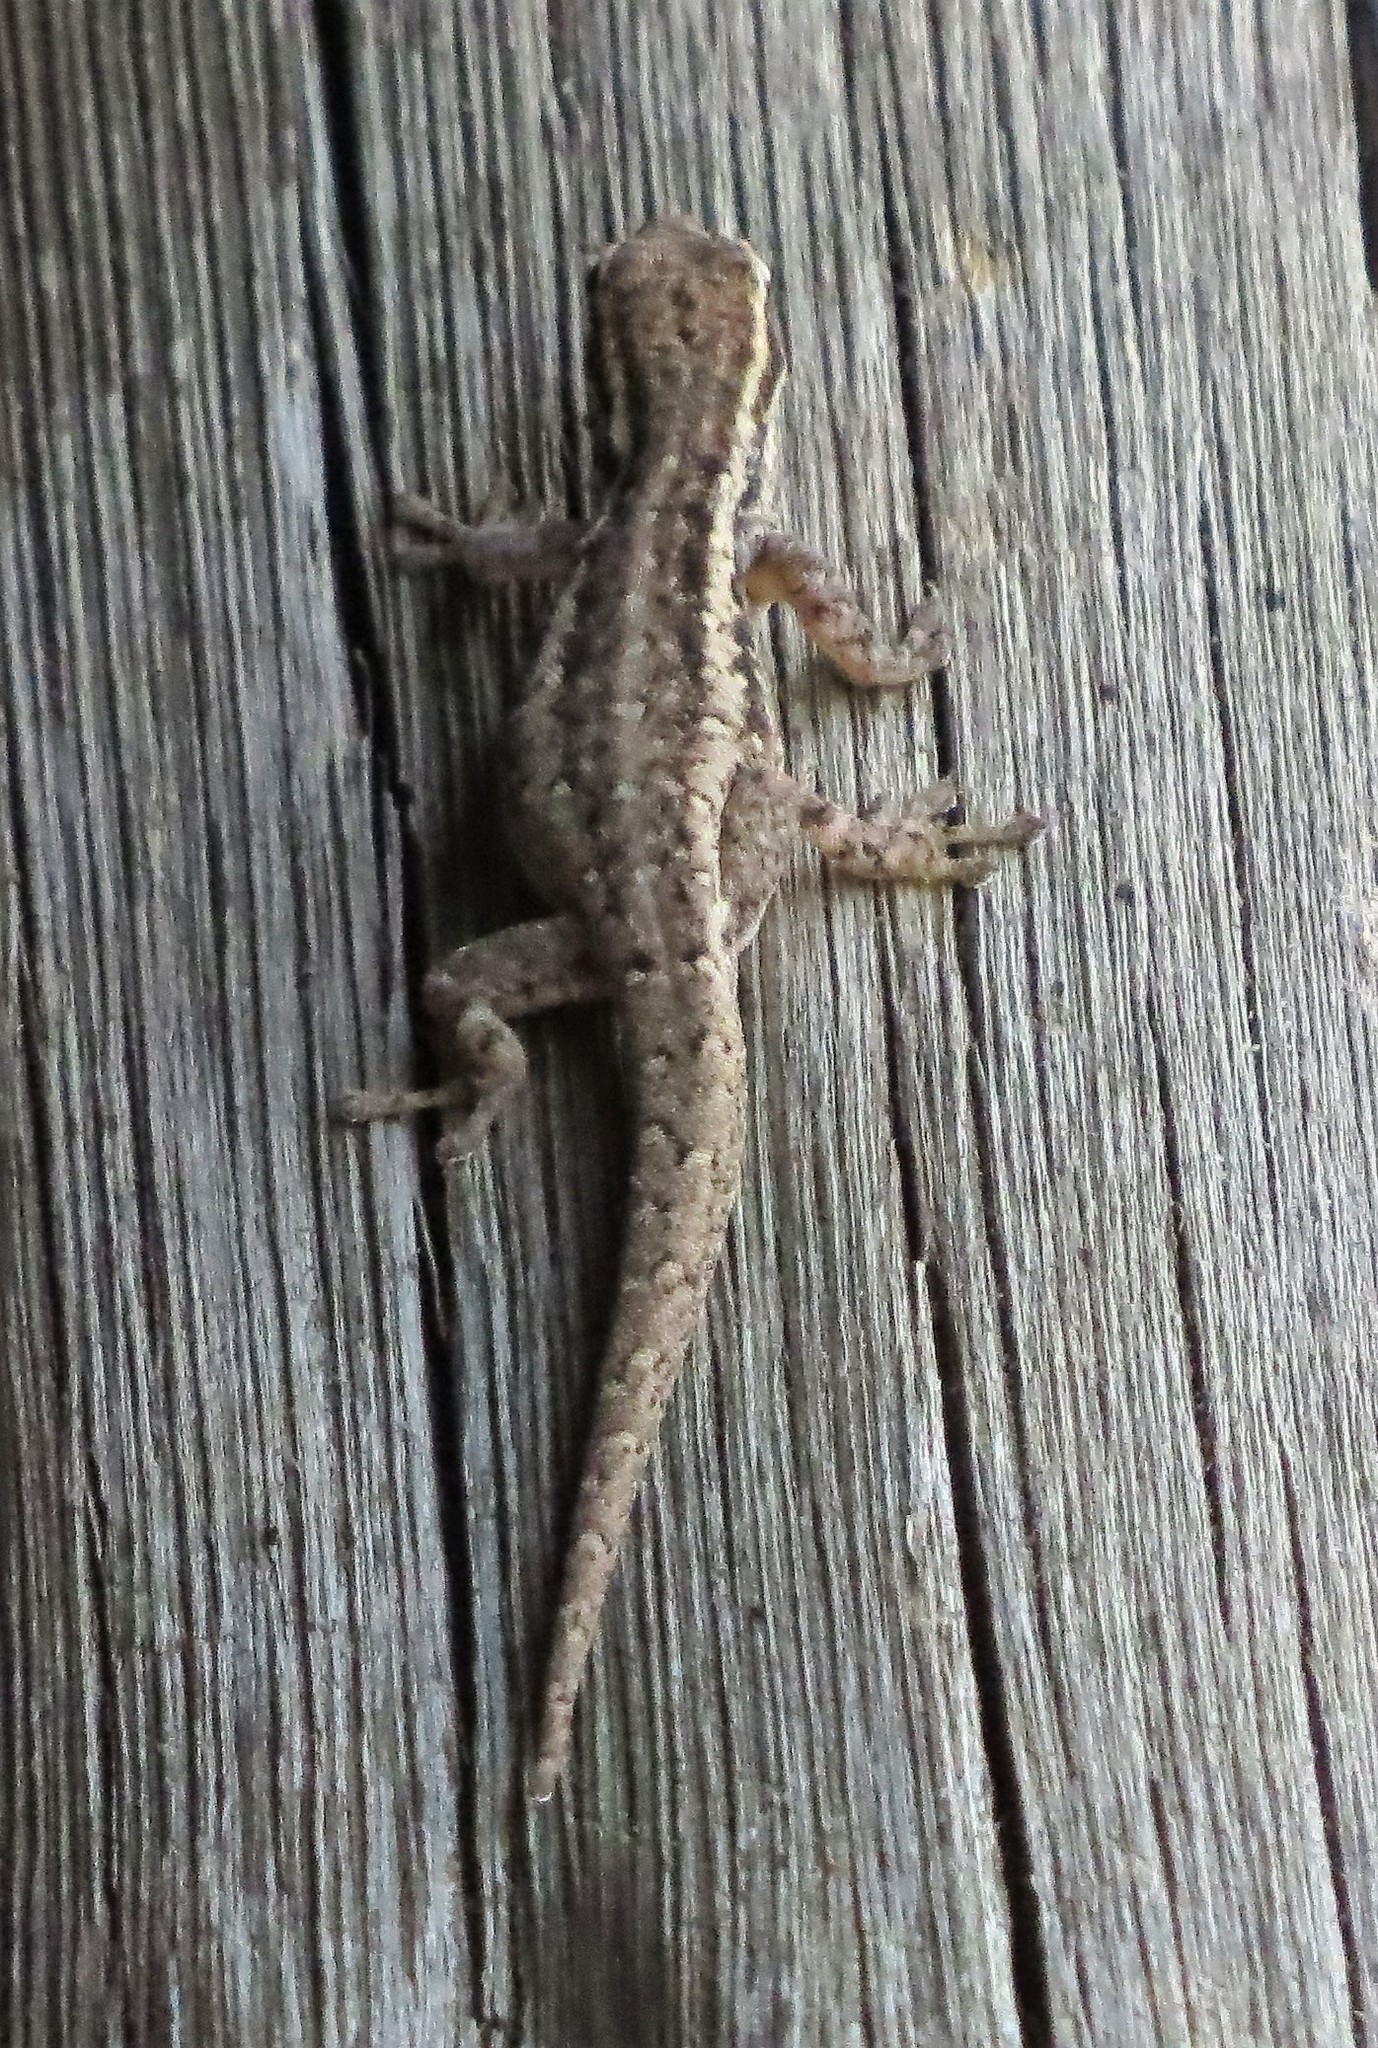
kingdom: Animalia
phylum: Chordata
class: Squamata
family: Gekkonidae
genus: Lygodactylus
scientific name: Lygodactylus capensis
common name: Cape dwarf gecko
